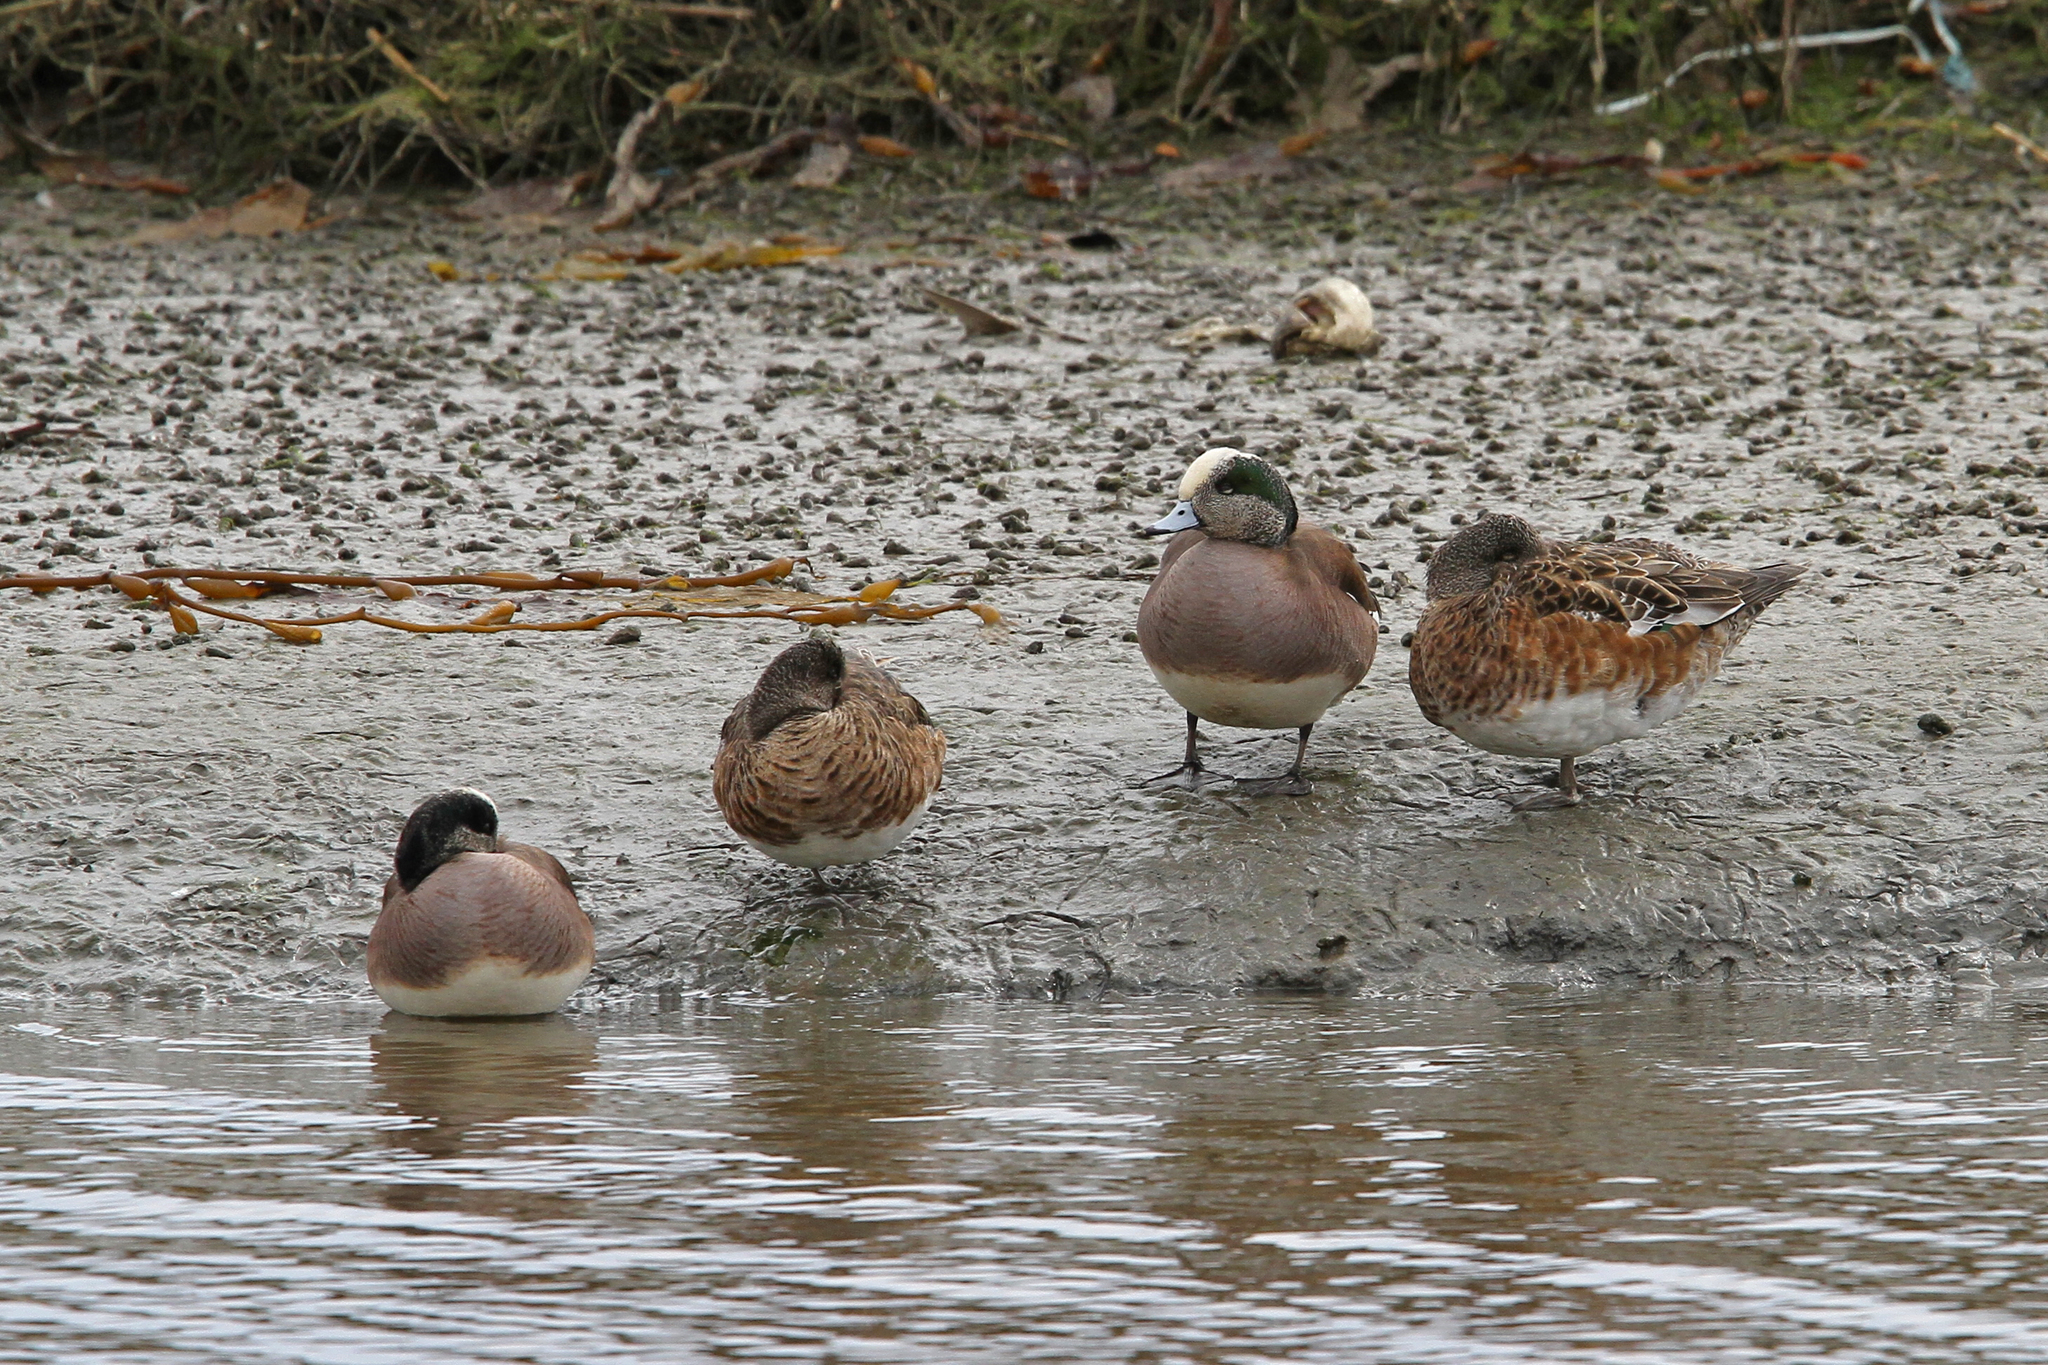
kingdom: Animalia
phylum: Chordata
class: Aves
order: Anseriformes
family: Anatidae
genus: Mareca
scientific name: Mareca americana
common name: American wigeon
